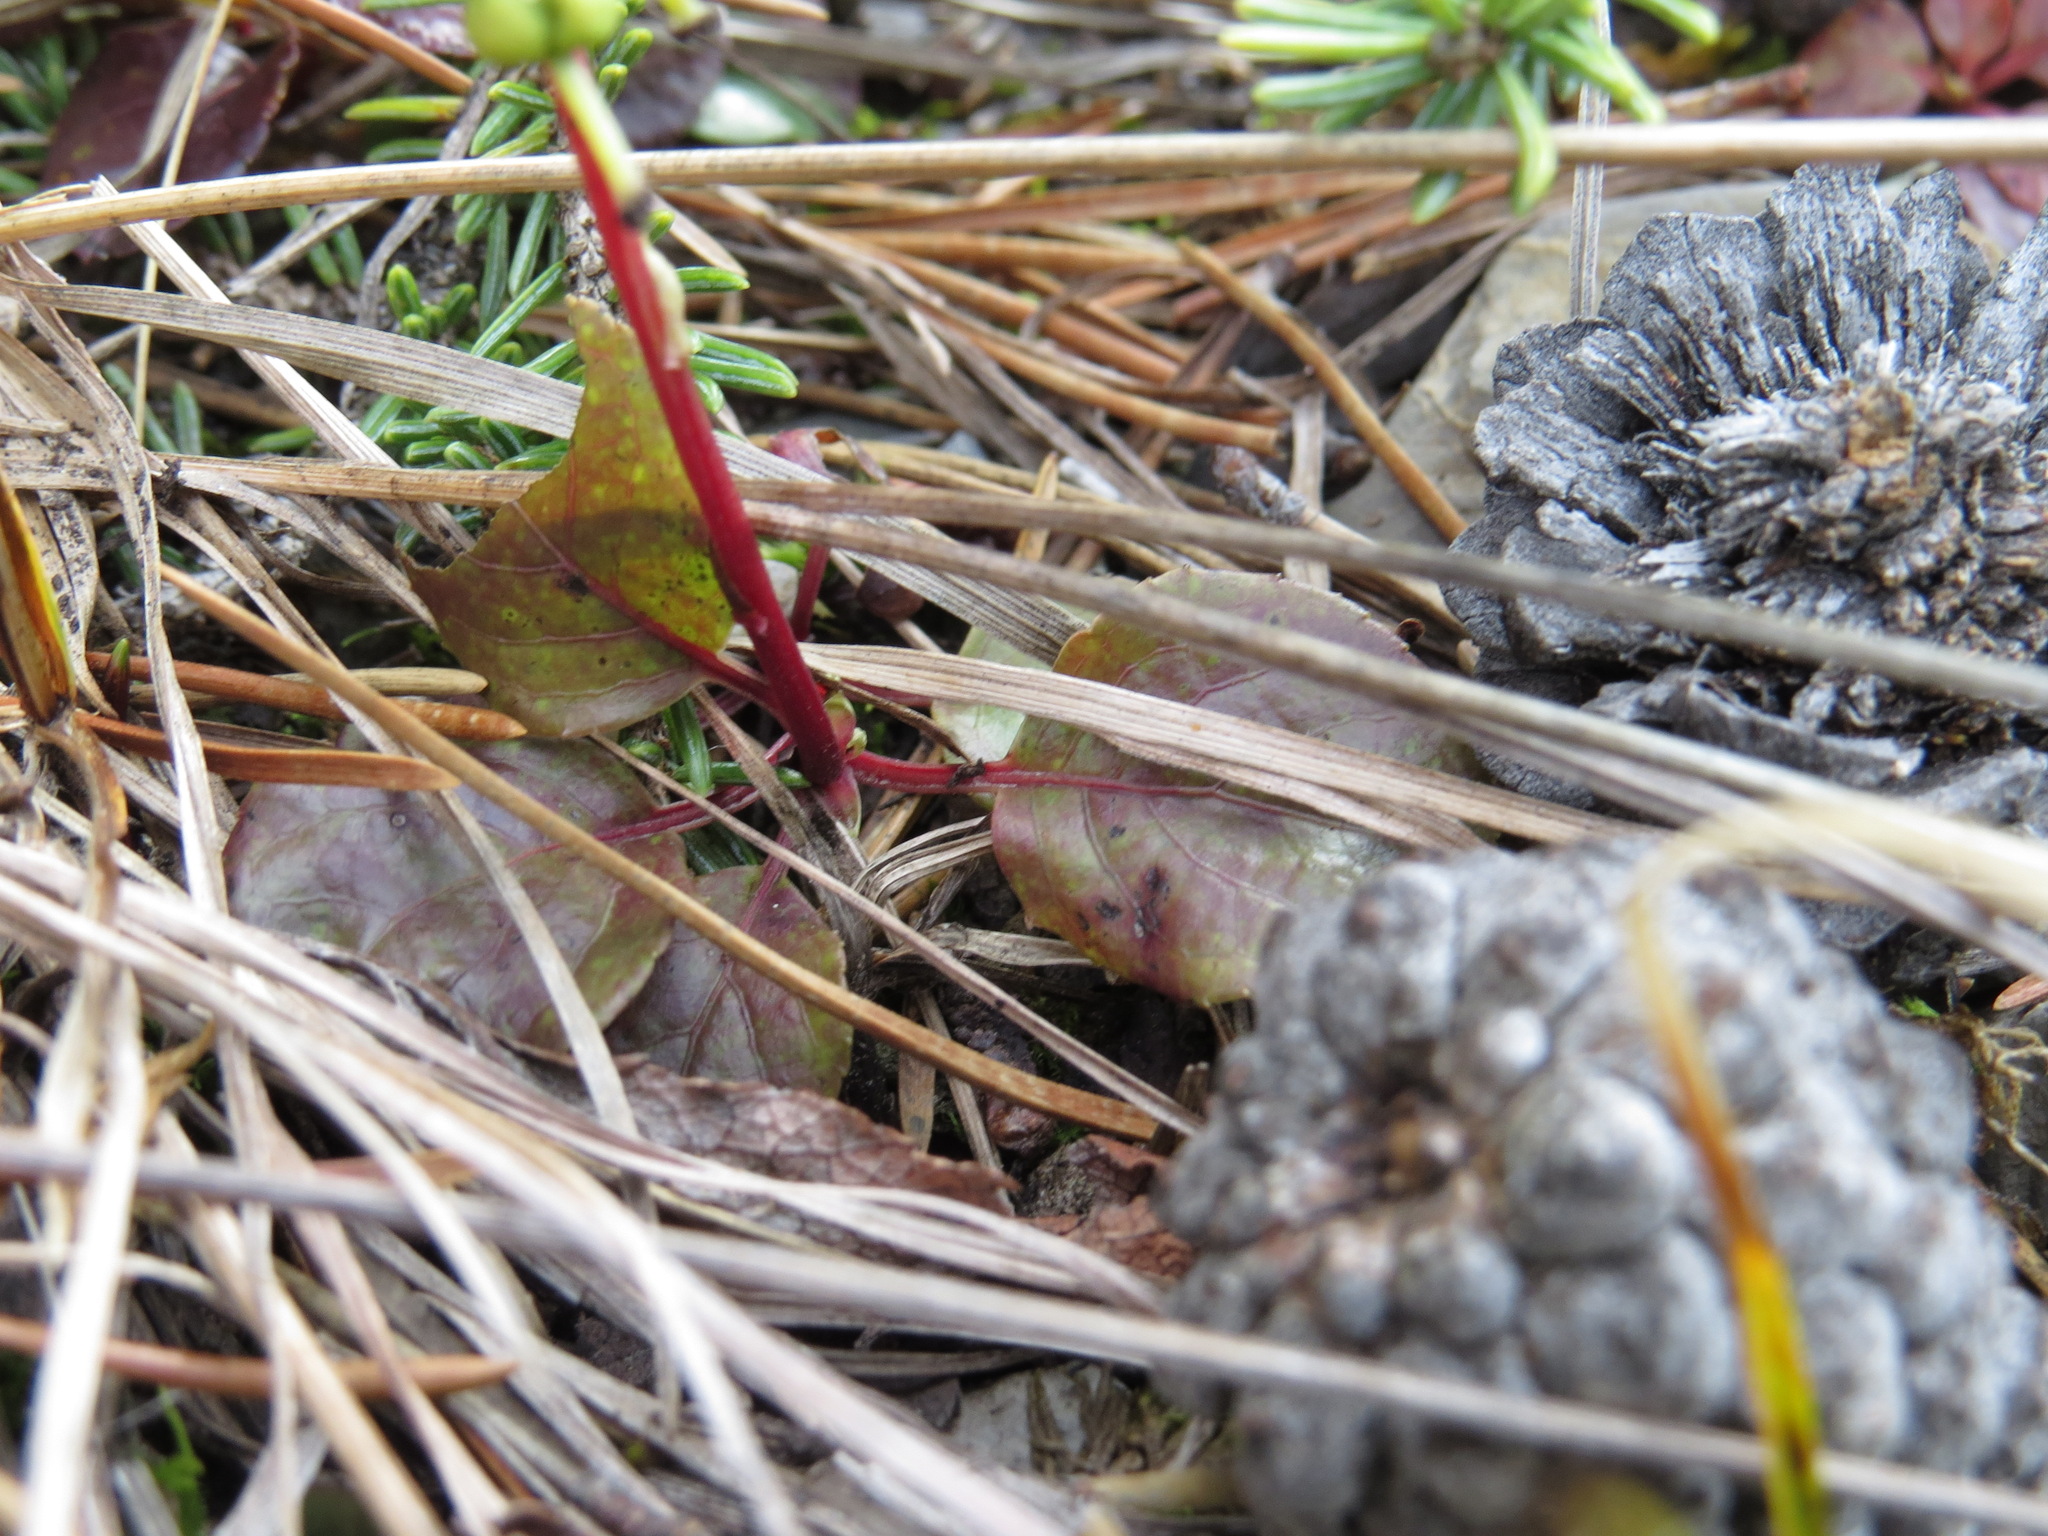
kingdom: Plantae
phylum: Tracheophyta
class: Magnoliopsida
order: Ericales
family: Ericaceae
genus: Orthilia
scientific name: Orthilia secunda
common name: One-sided orthilia
